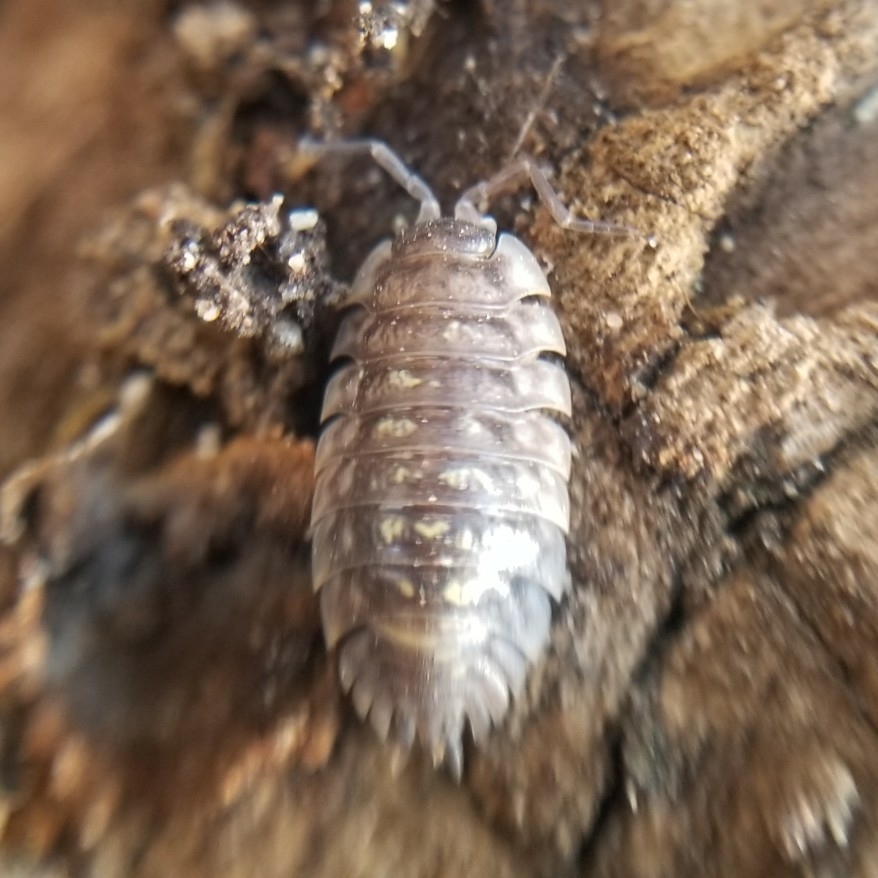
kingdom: Animalia
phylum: Arthropoda
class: Malacostraca
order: Isopoda
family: Oniscidae
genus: Oniscus
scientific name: Oniscus asellus
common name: Common shiny woodlouse
